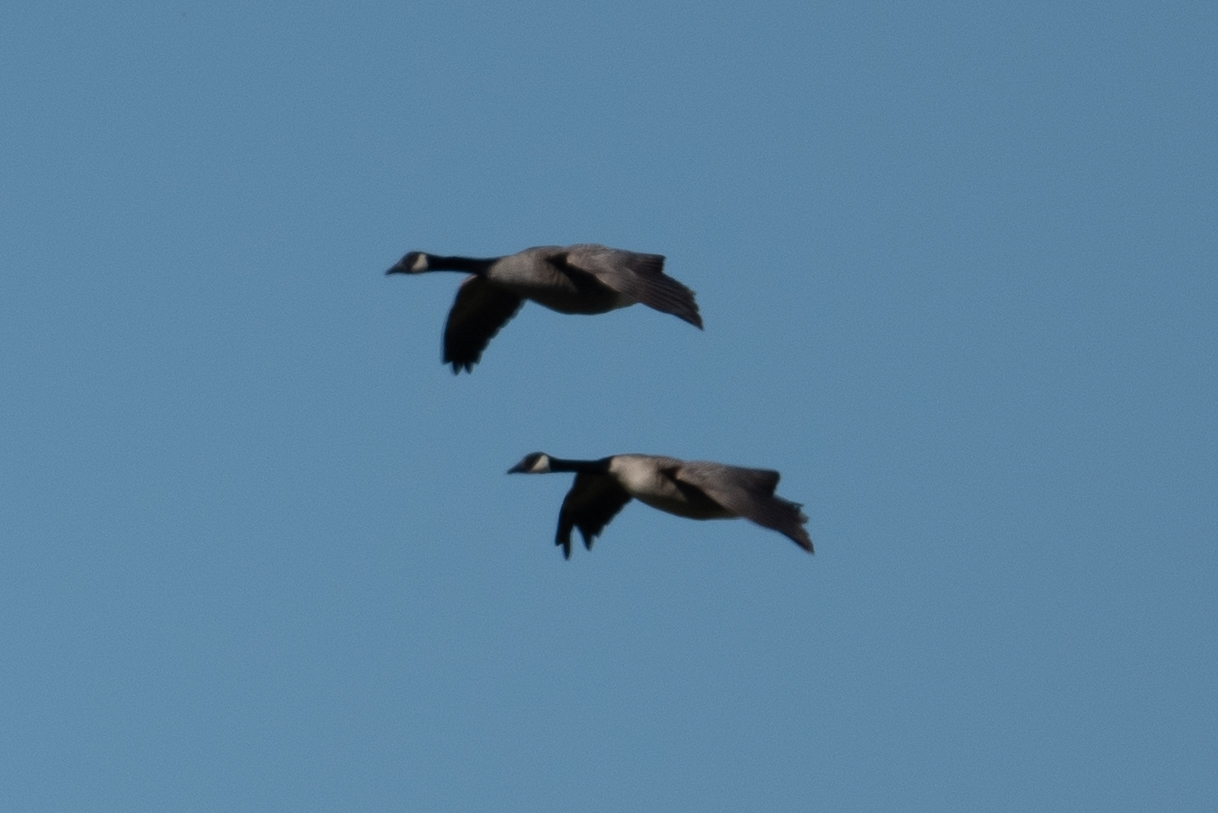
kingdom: Animalia
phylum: Chordata
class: Aves
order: Anseriformes
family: Anatidae
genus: Branta
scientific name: Branta canadensis
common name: Canada goose
